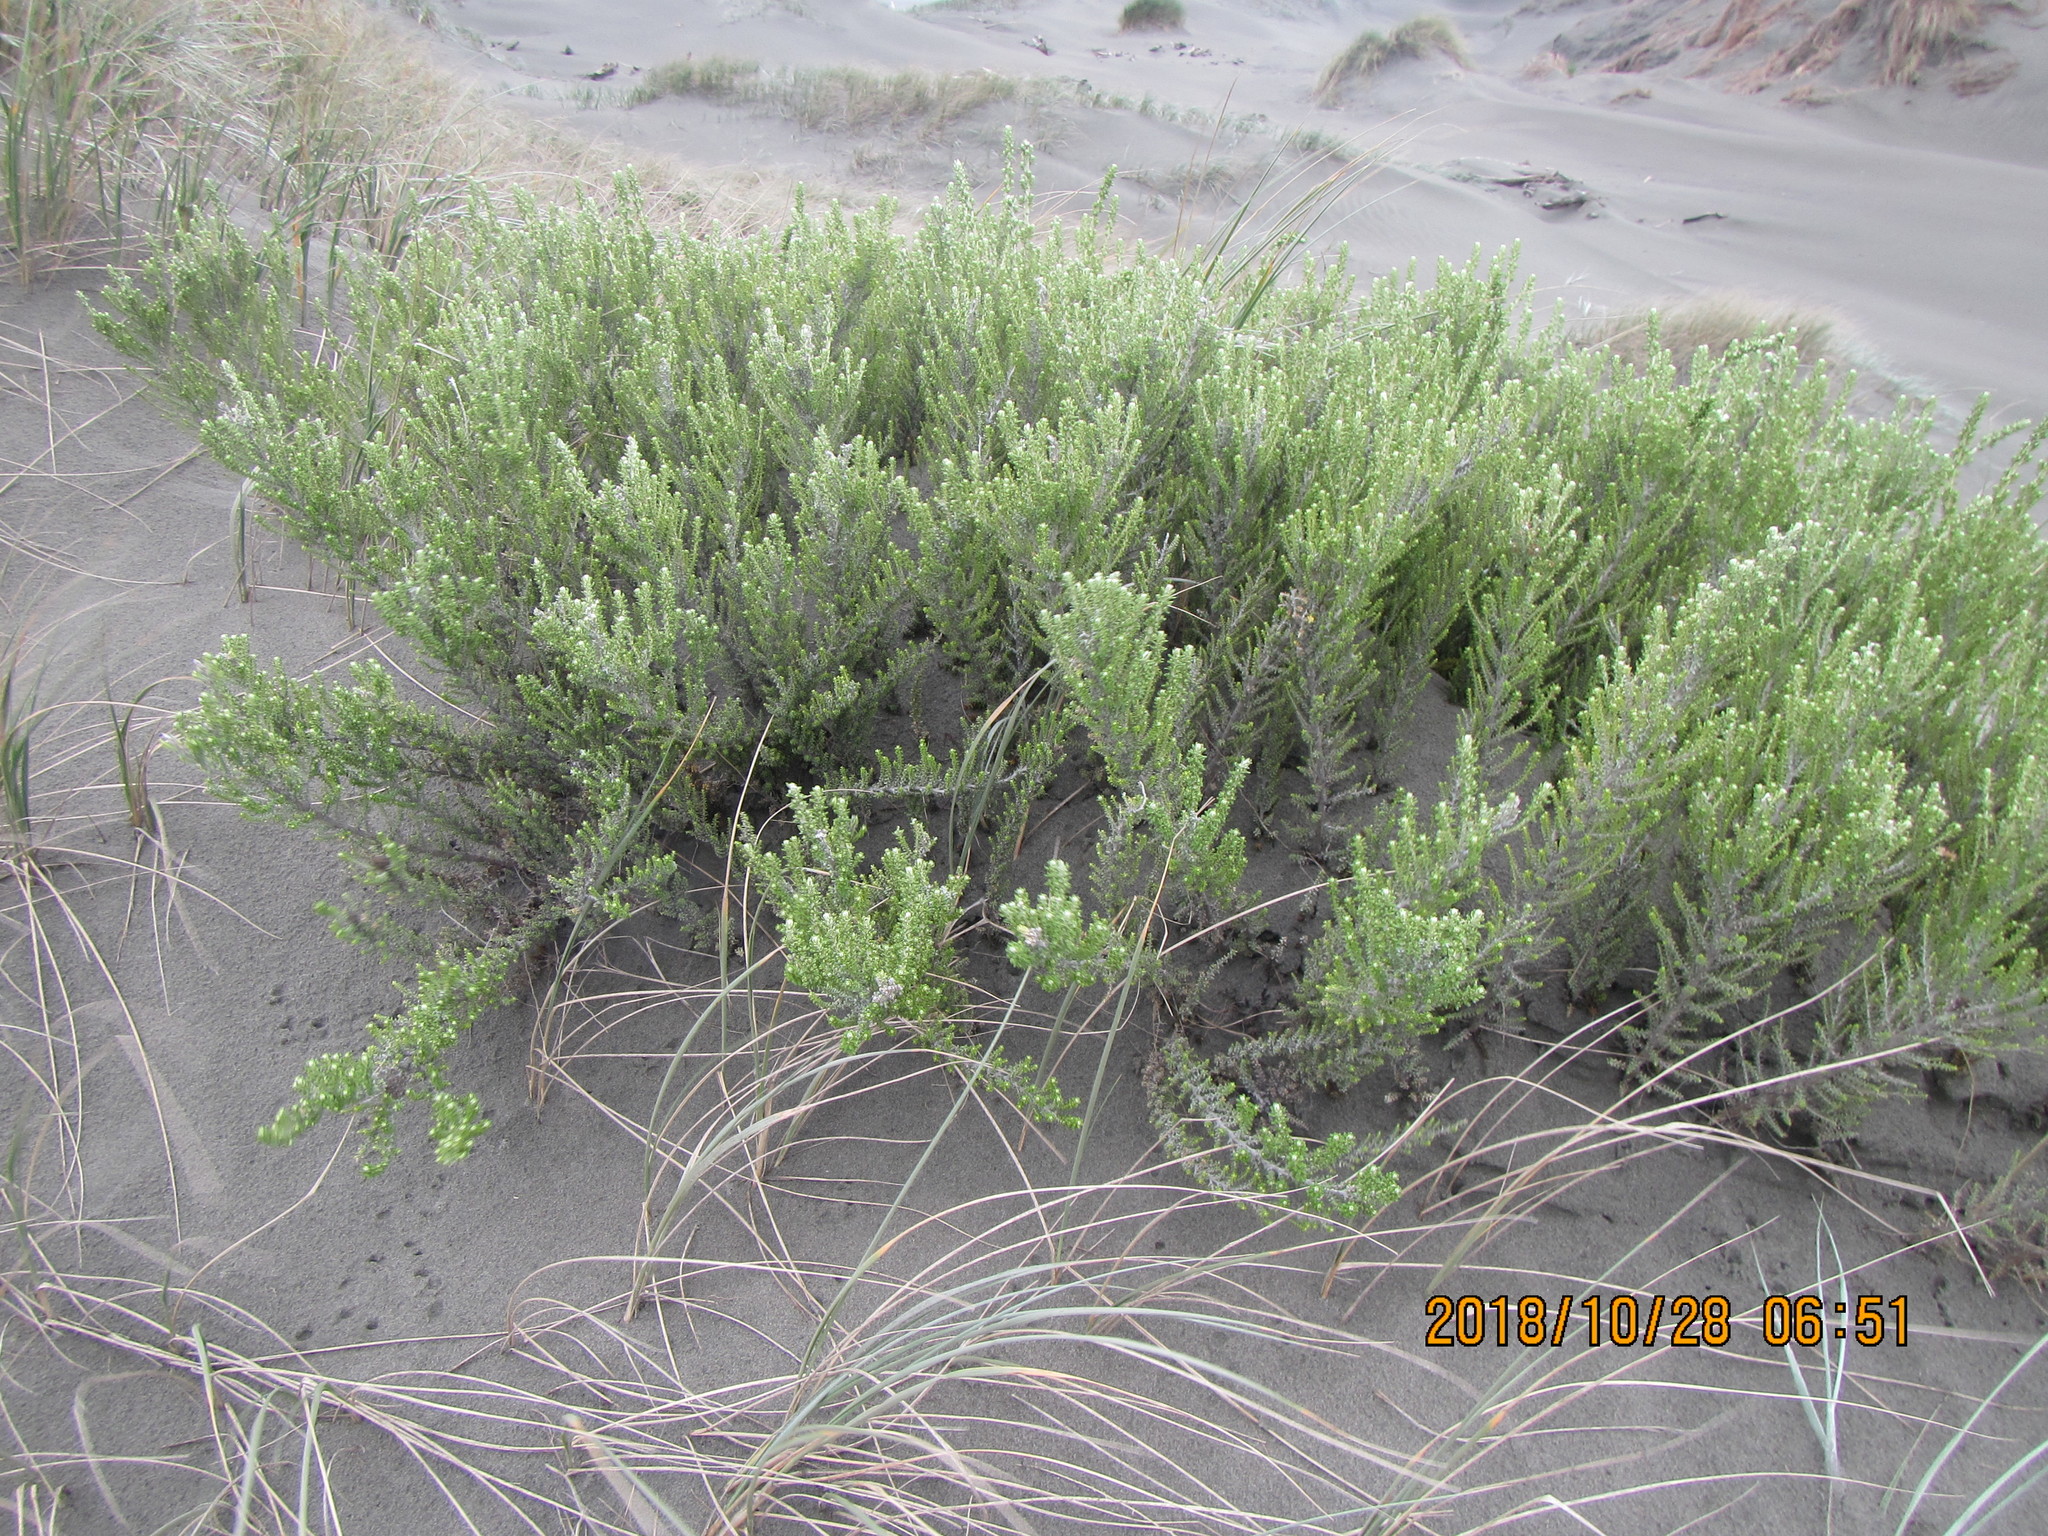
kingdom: Plantae
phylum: Tracheophyta
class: Magnoliopsida
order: Asterales
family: Asteraceae
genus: Ozothamnus
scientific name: Ozothamnus leptophyllus
